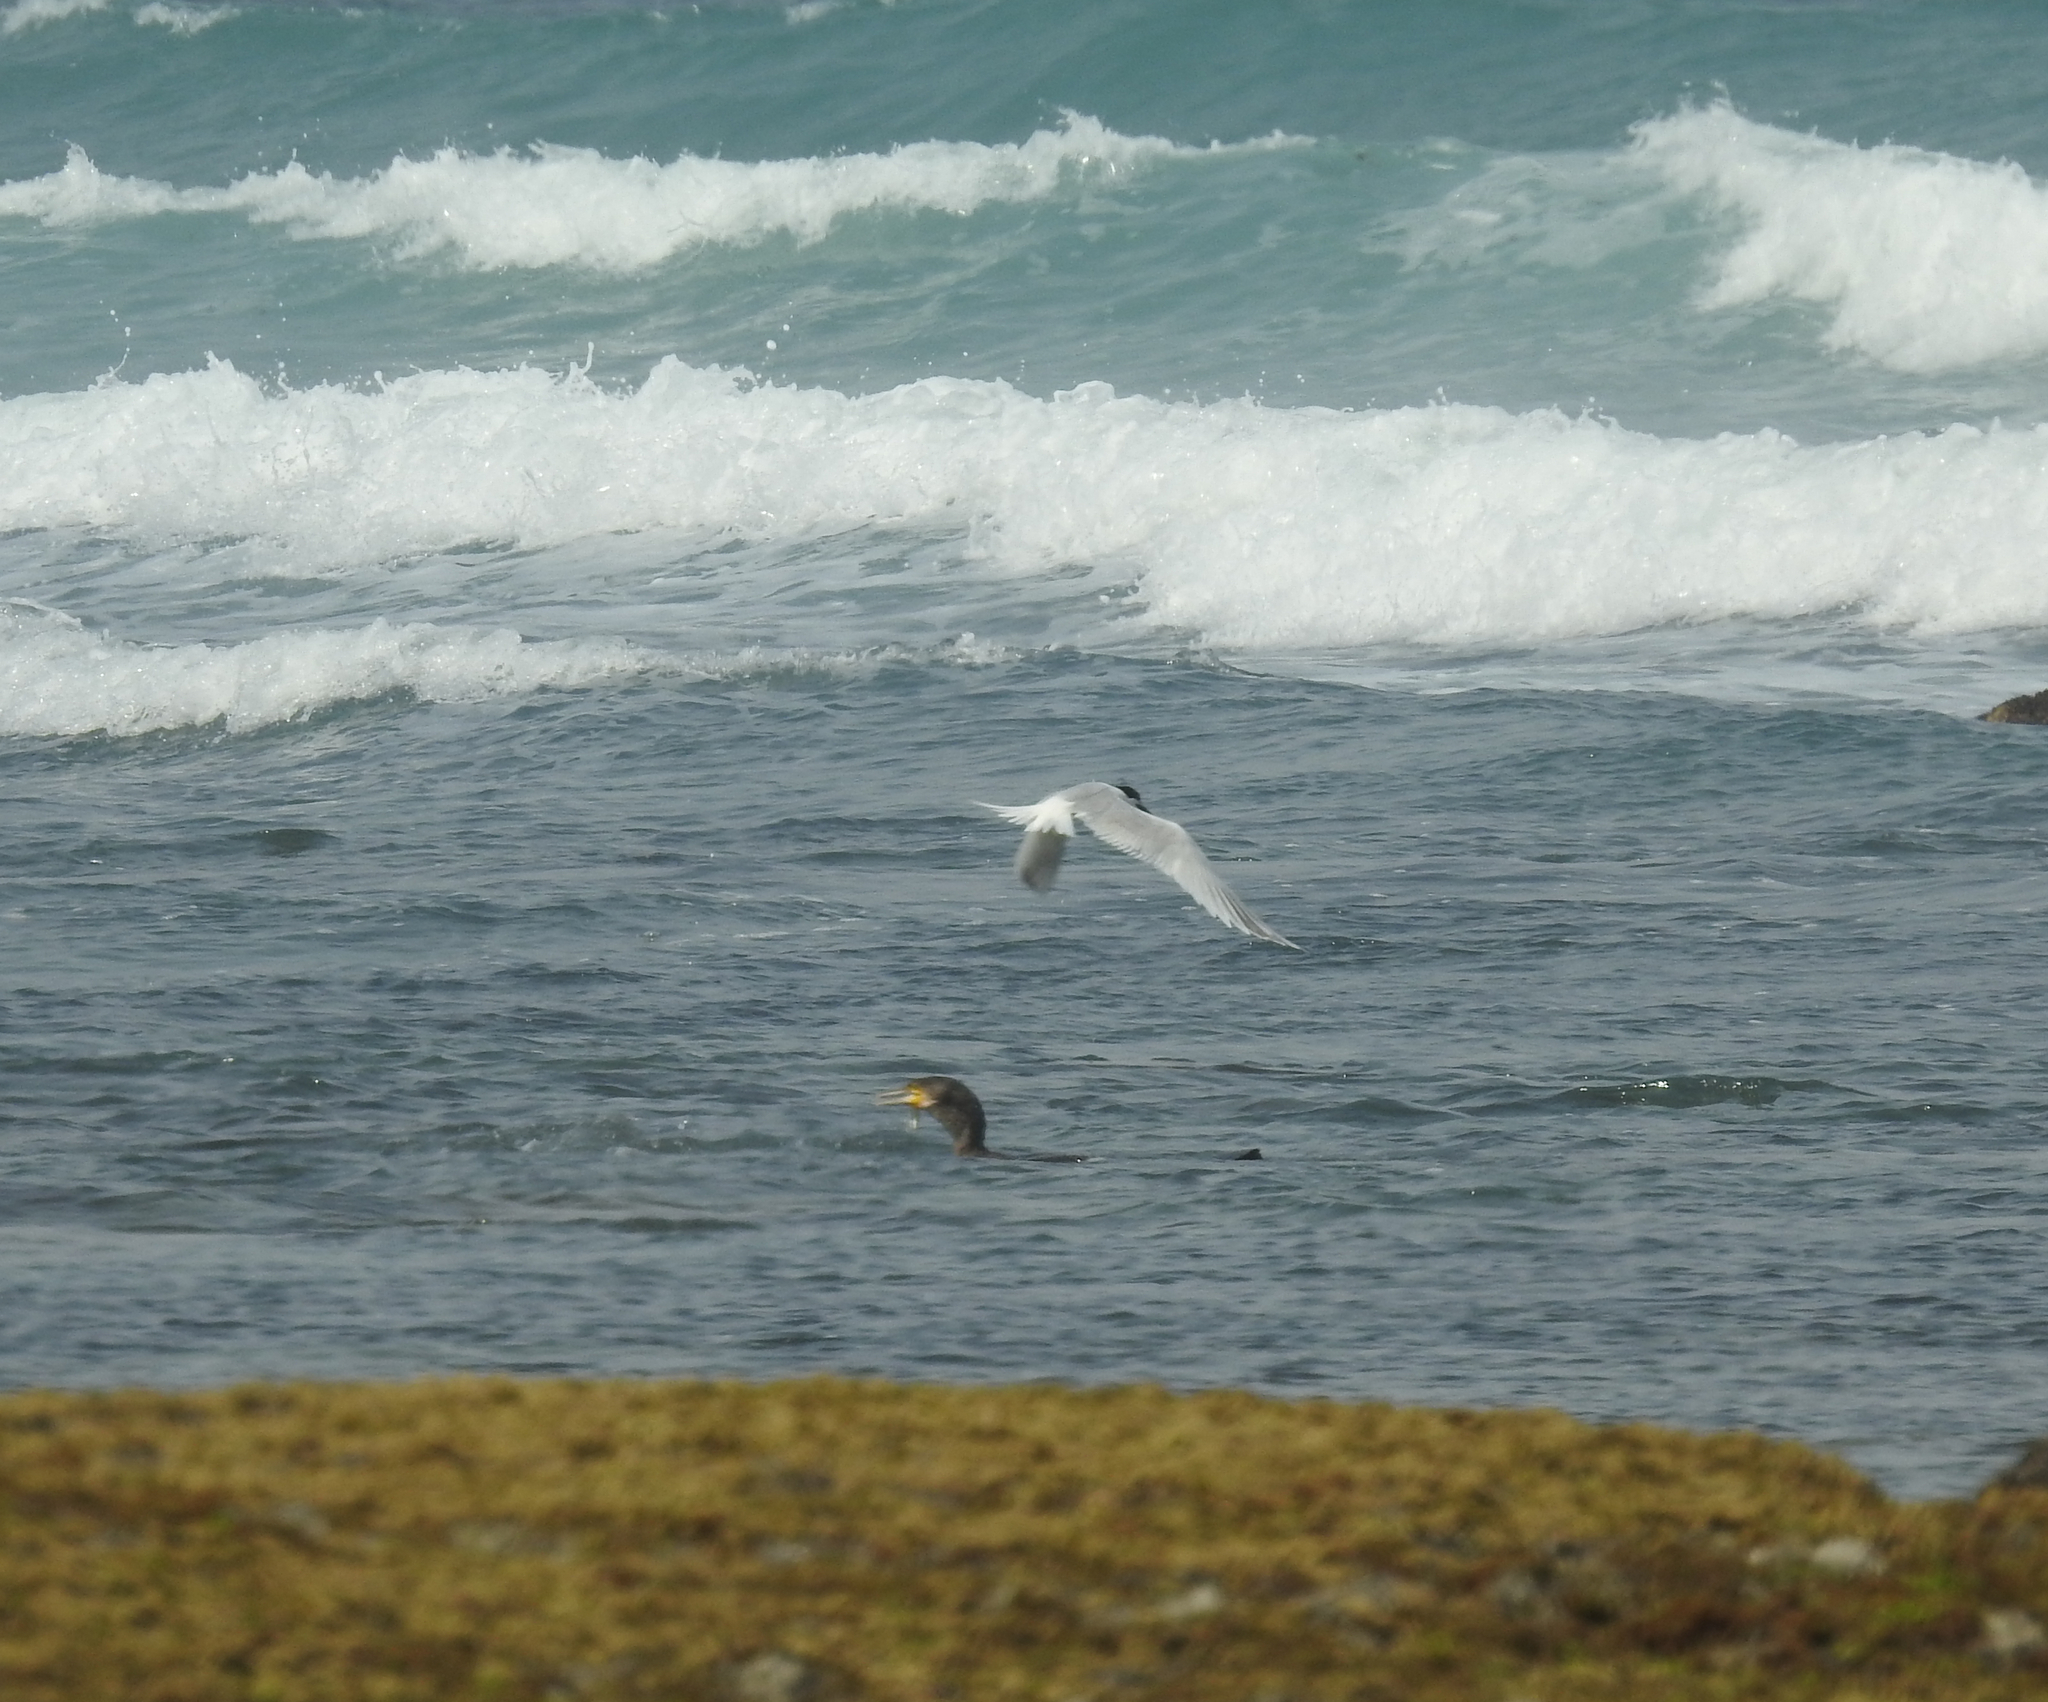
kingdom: Animalia
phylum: Chordata
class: Aves
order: Charadriiformes
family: Laridae
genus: Thalasseus
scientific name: Thalasseus sandvicensis
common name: Sandwich tern
